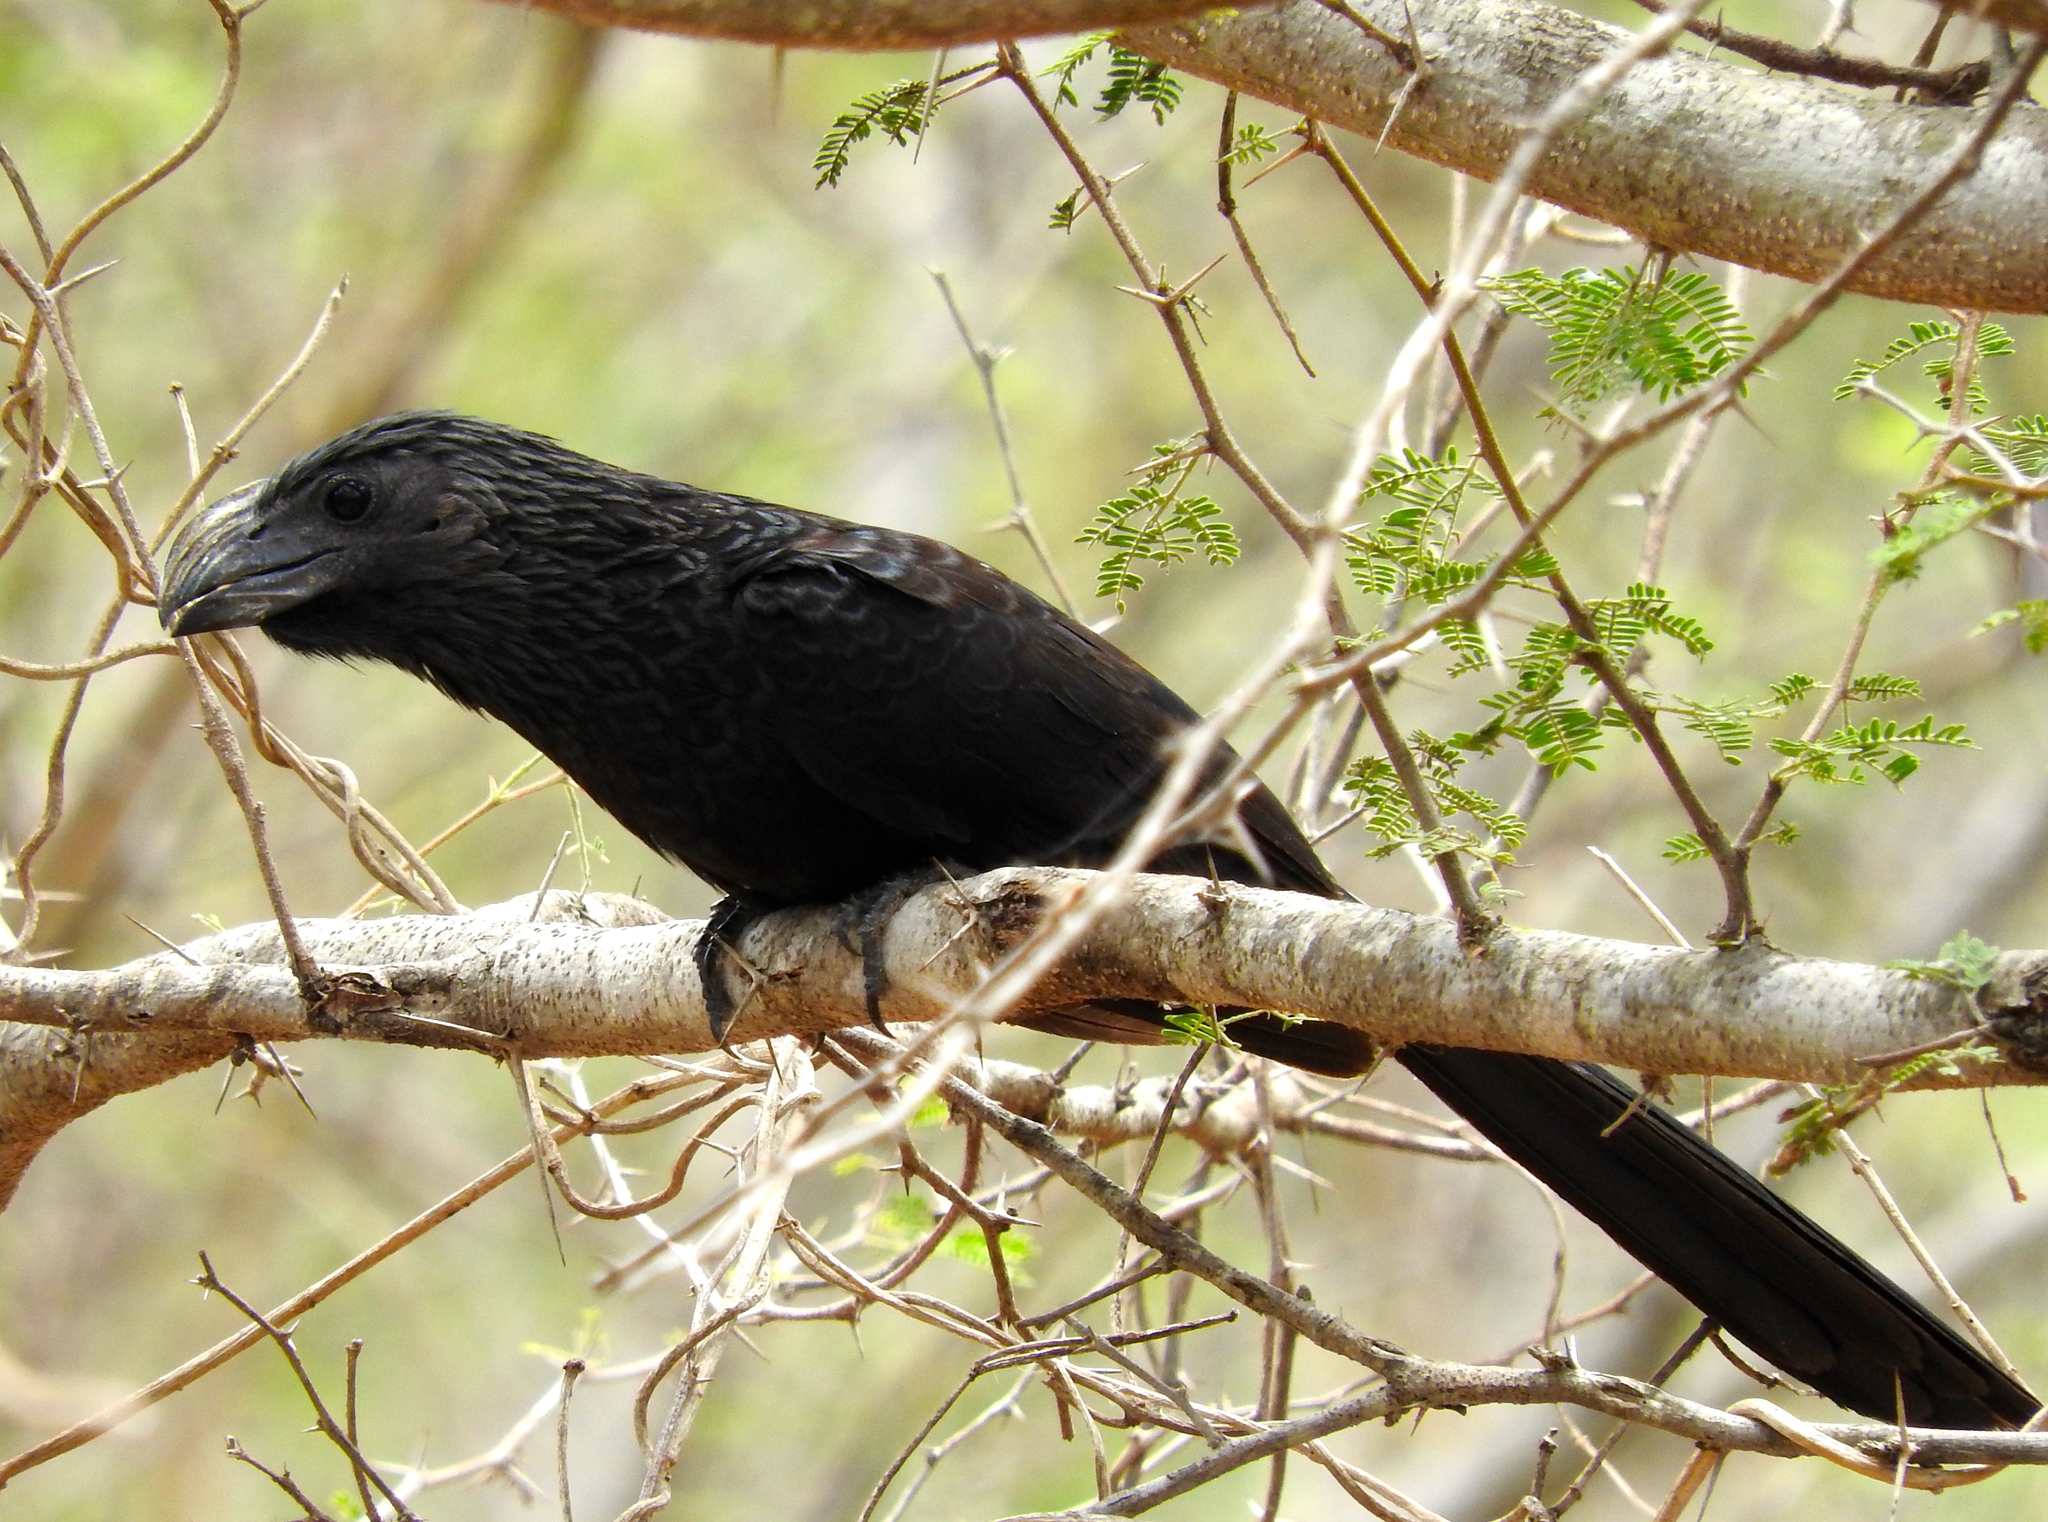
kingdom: Animalia
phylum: Chordata
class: Aves
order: Cuculiformes
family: Cuculidae
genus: Crotophaga
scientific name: Crotophaga sulcirostris
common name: Groove-billed ani
